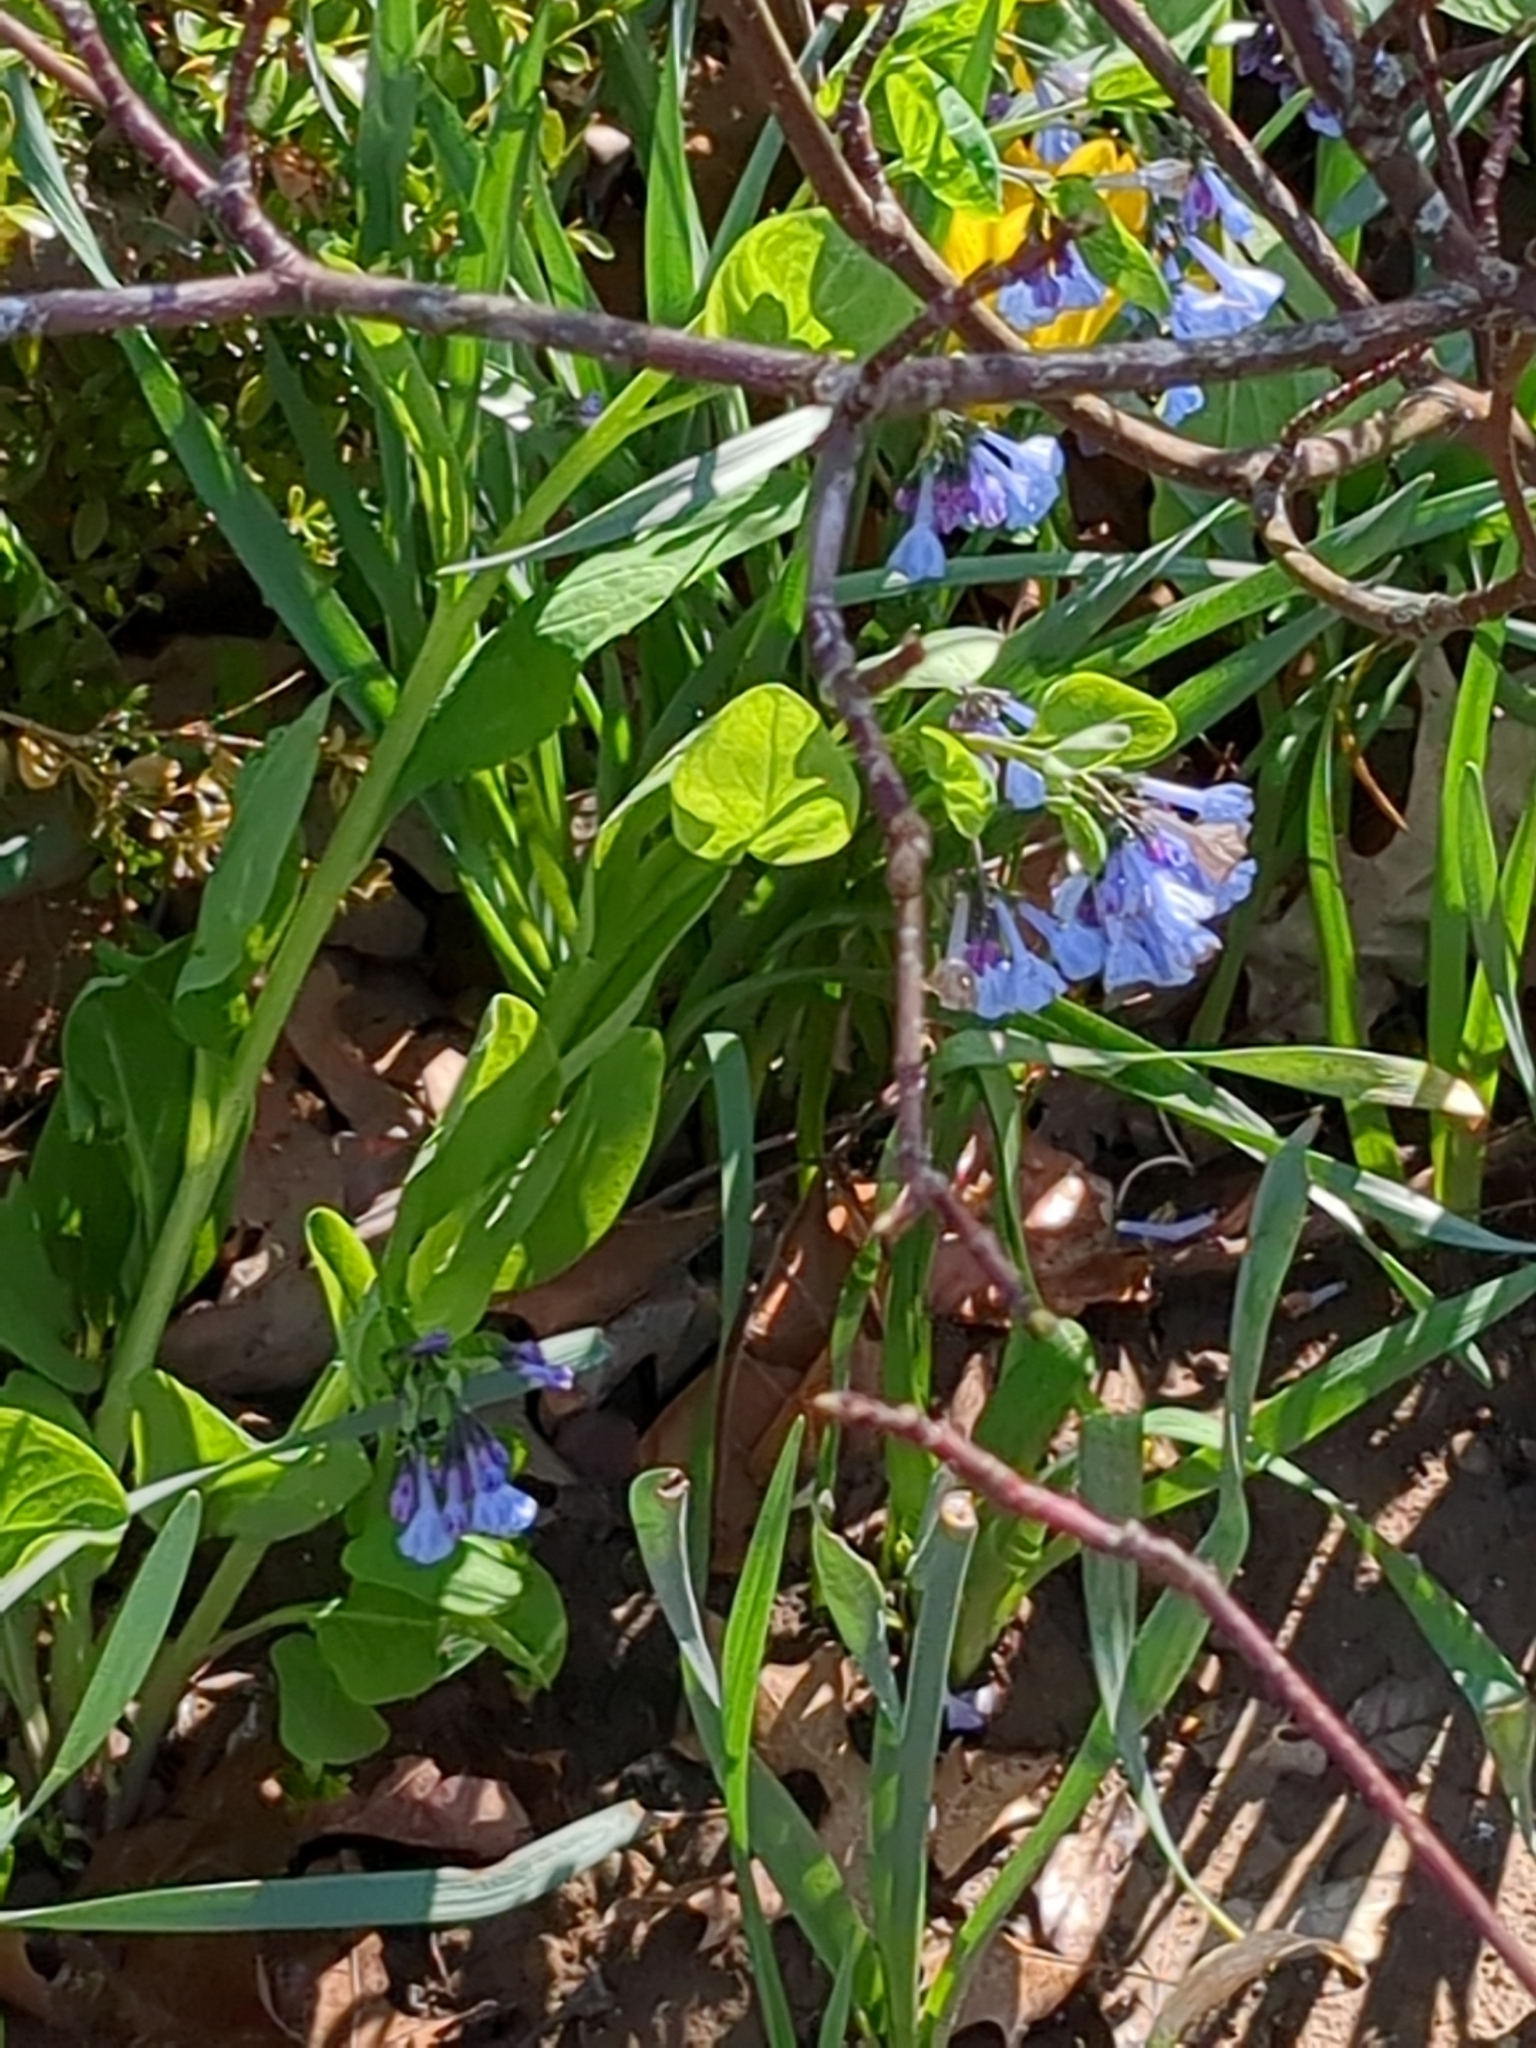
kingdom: Plantae
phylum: Tracheophyta
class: Magnoliopsida
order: Boraginales
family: Boraginaceae
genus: Mertensia
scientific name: Mertensia virginica
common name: Virginia bluebells
